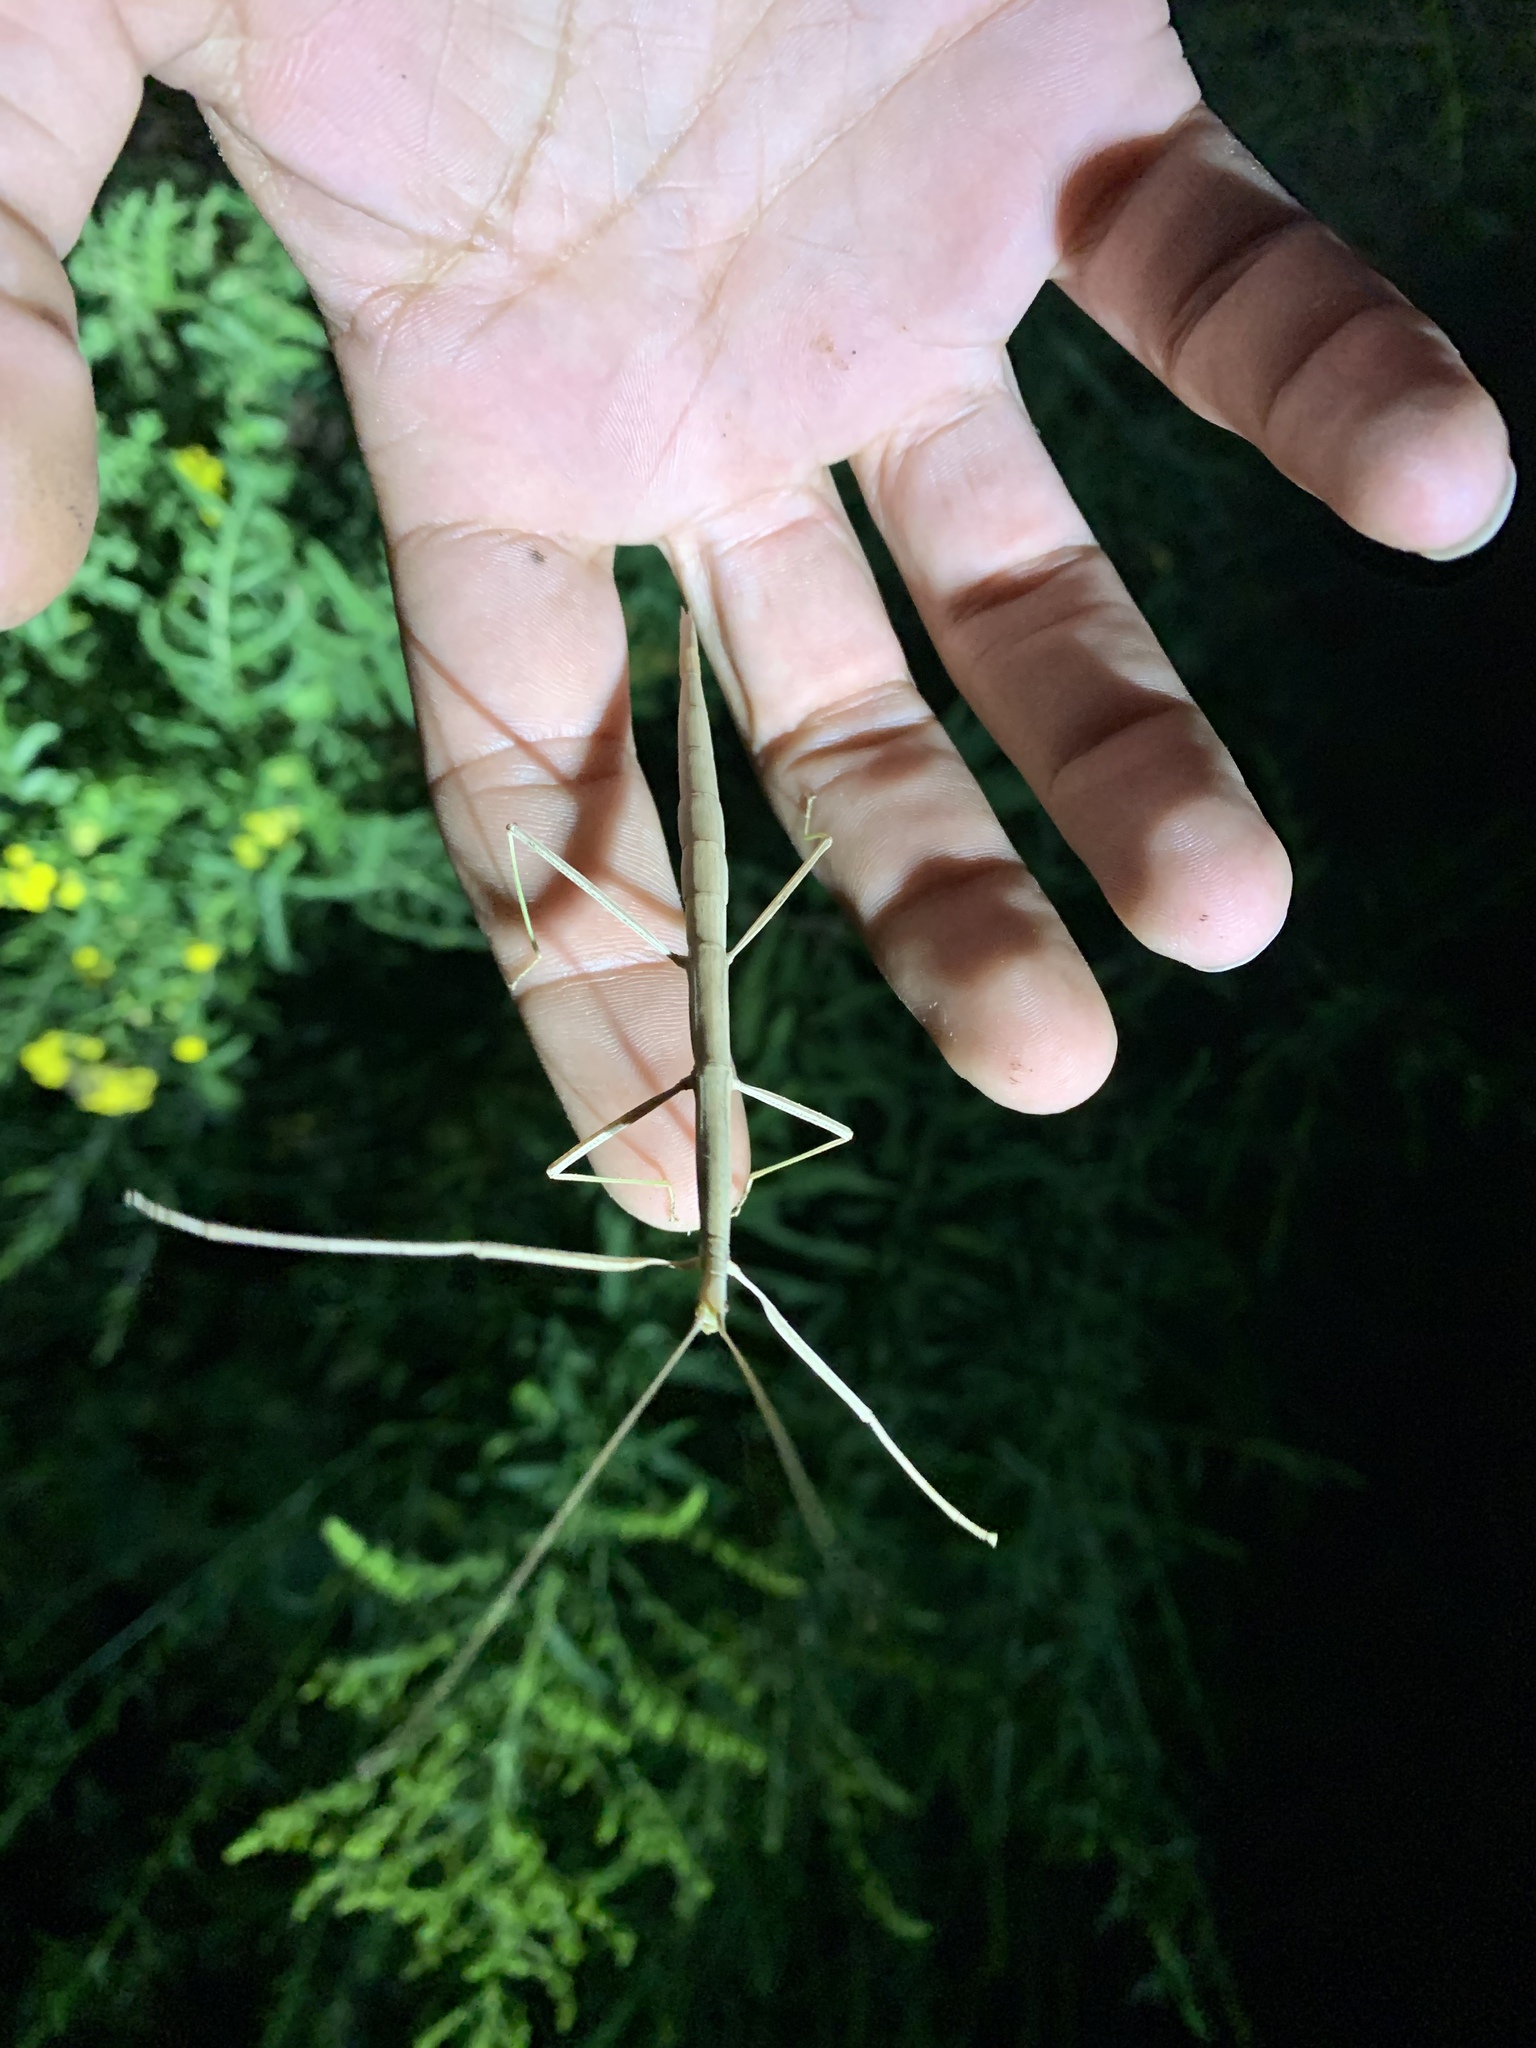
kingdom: Animalia
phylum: Arthropoda
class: Insecta
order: Phasmida
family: Diapheromeridae
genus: Diapheromera
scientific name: Diapheromera femorata
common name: Common american walkingstick
